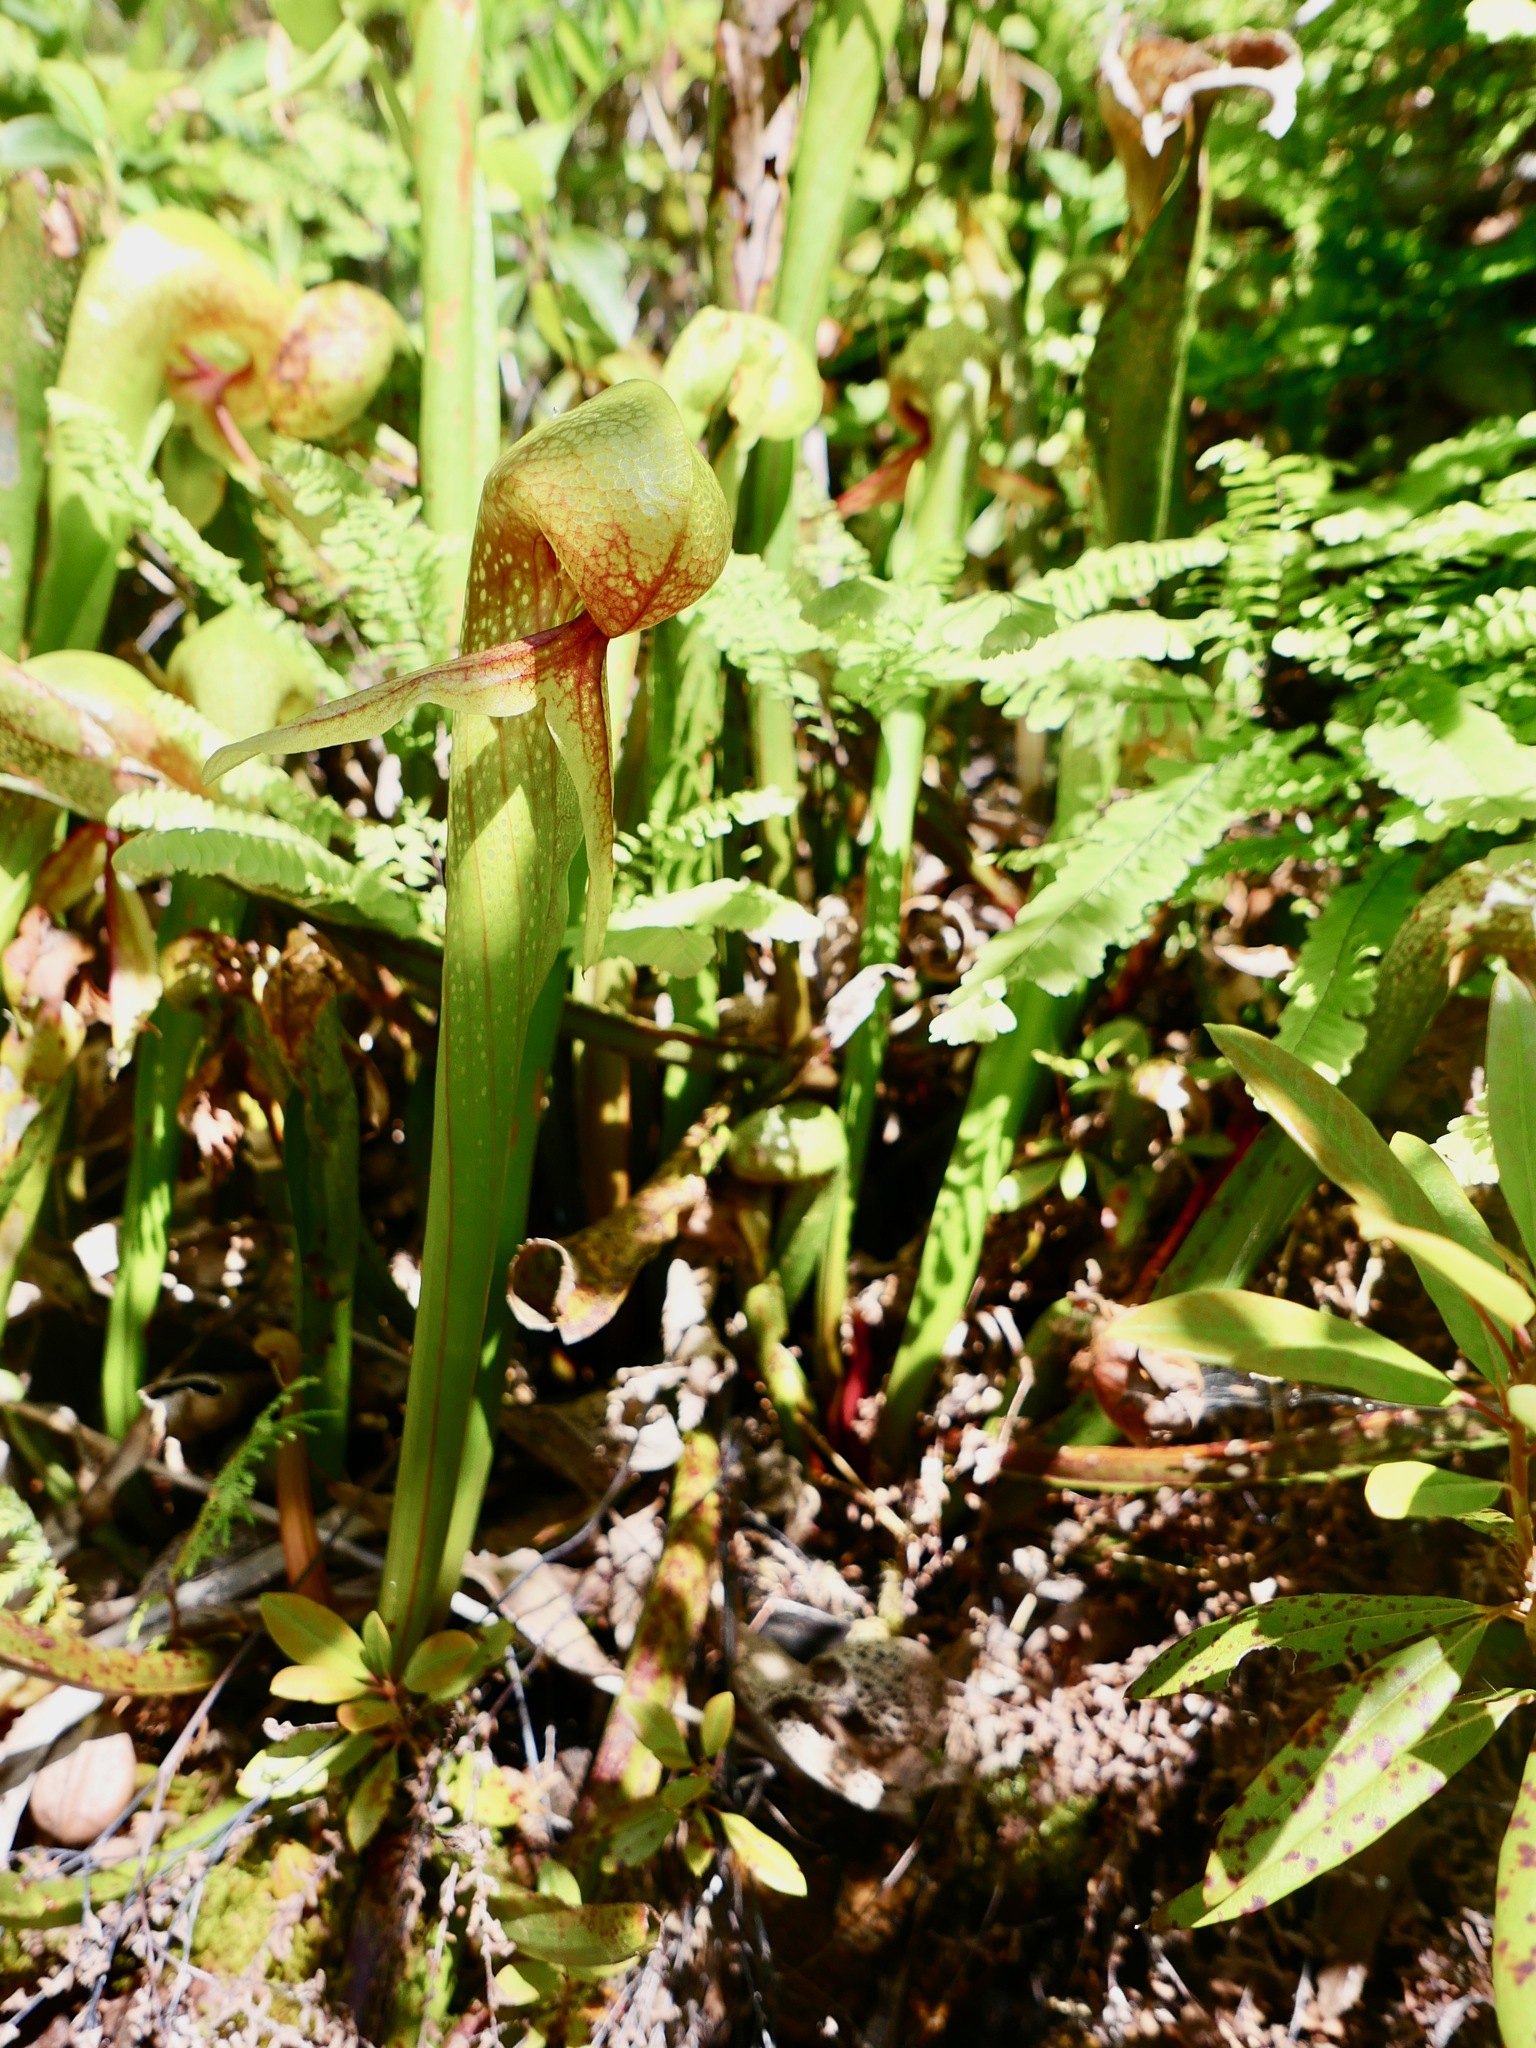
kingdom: Plantae
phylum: Tracheophyta
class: Magnoliopsida
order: Ericales
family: Sarraceniaceae
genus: Darlingtonia
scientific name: Darlingtonia californica
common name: California pitcher plant
